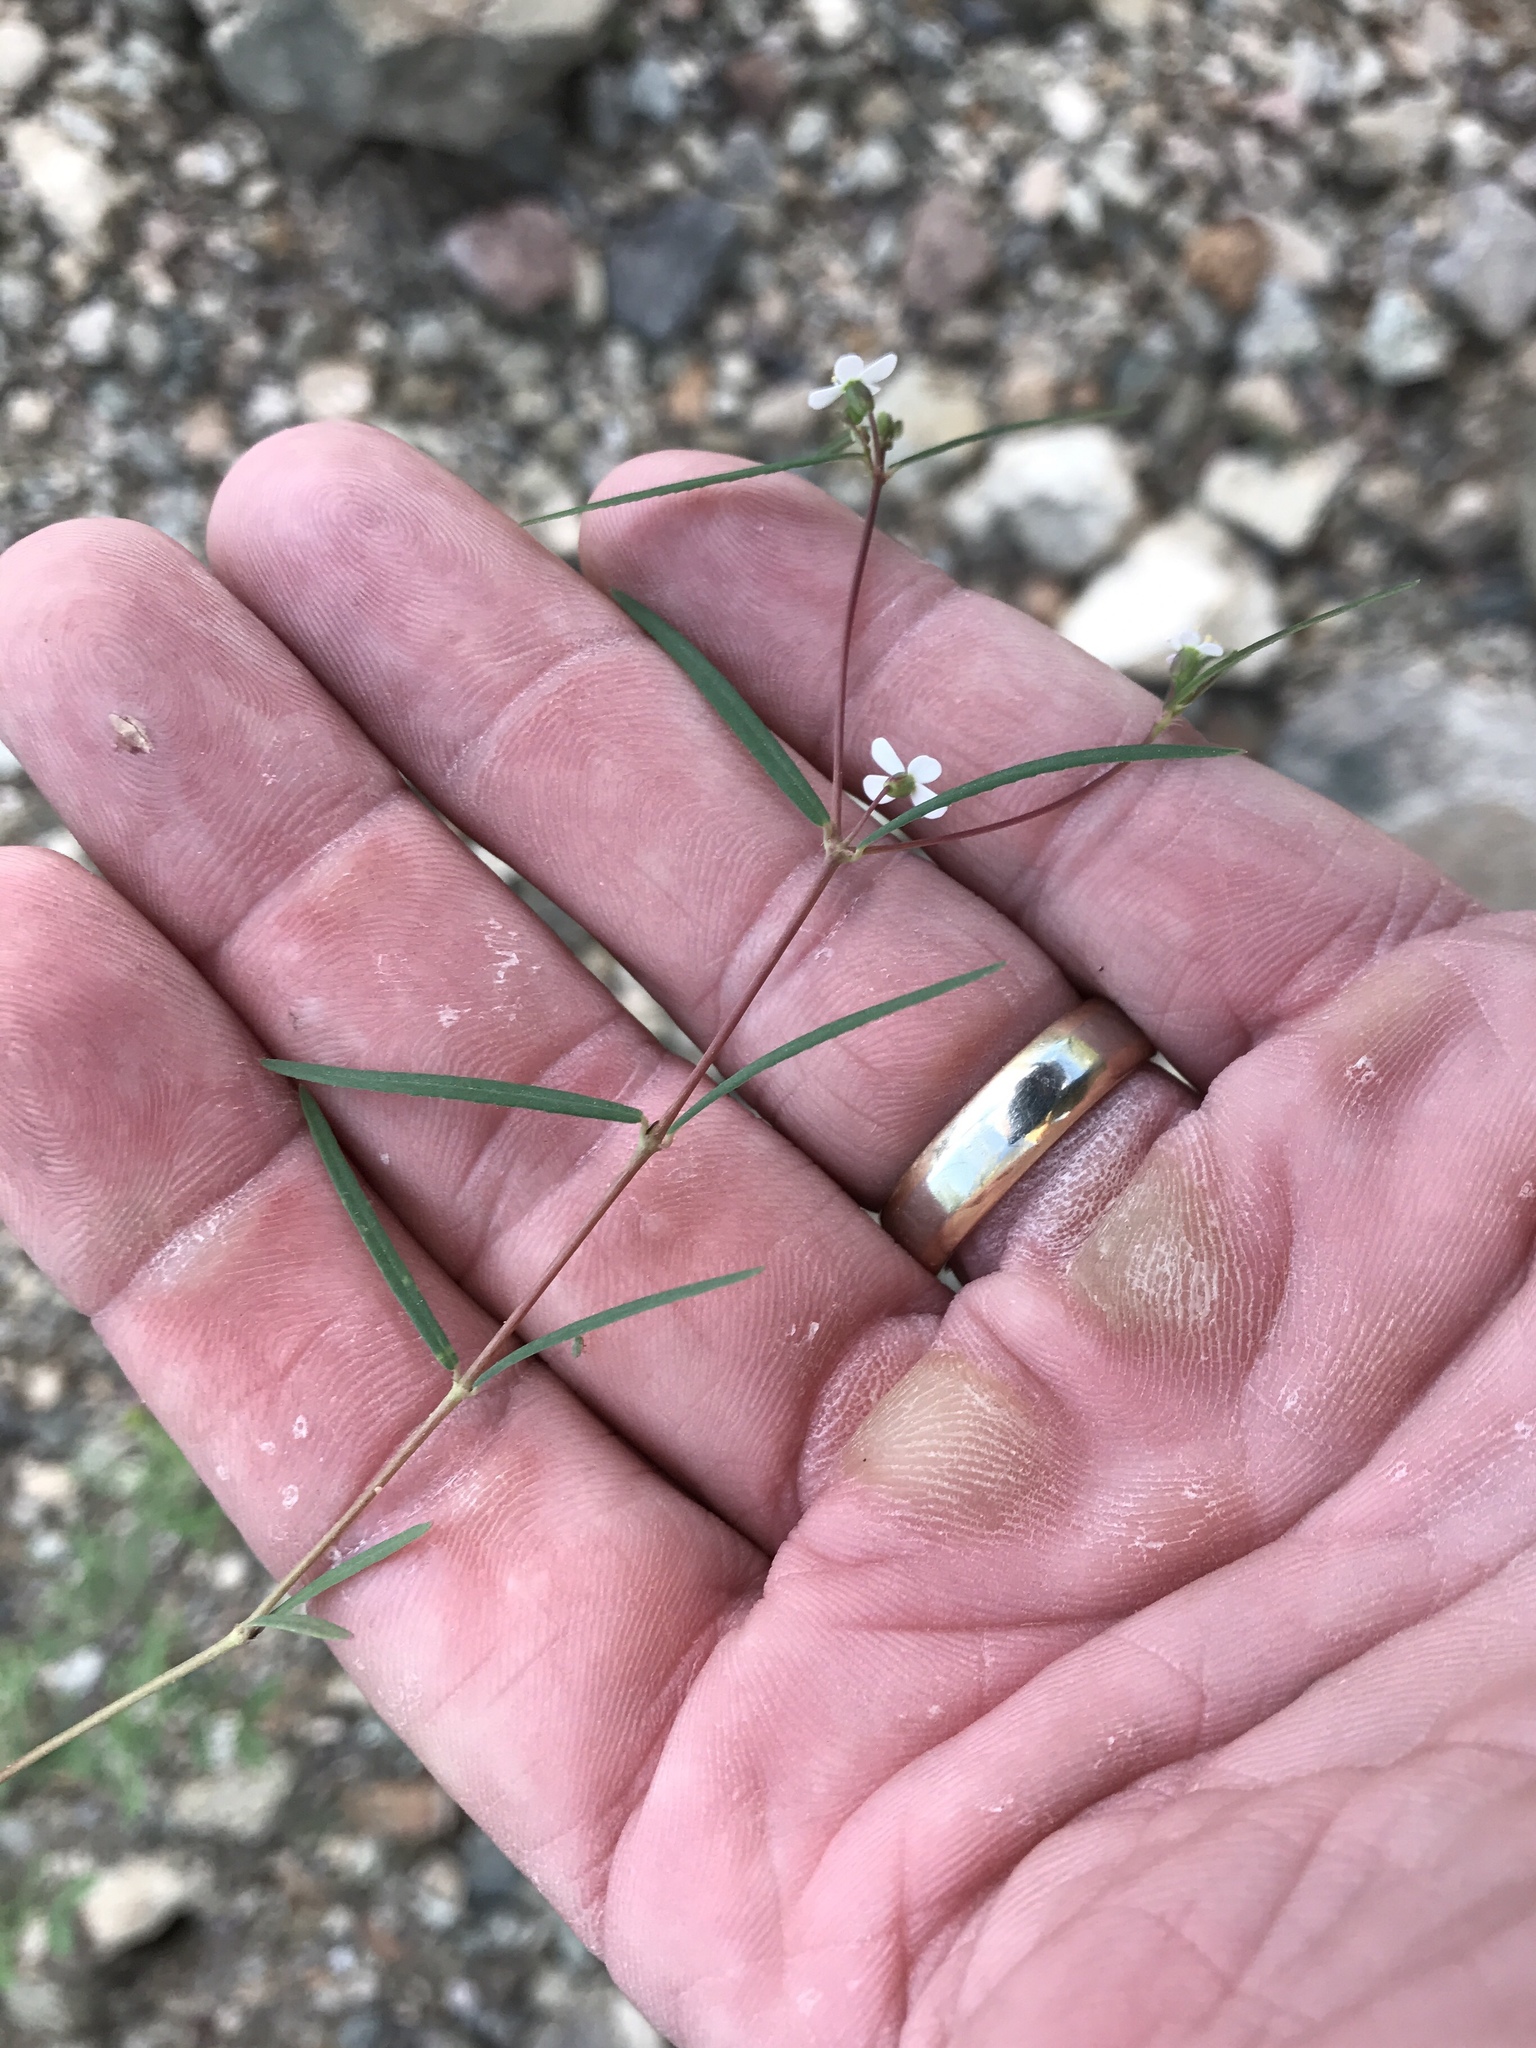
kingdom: Plantae
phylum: Tracheophyta
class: Magnoliopsida
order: Malpighiales
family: Euphorbiaceae
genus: Euphorbia
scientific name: Euphorbia florida
